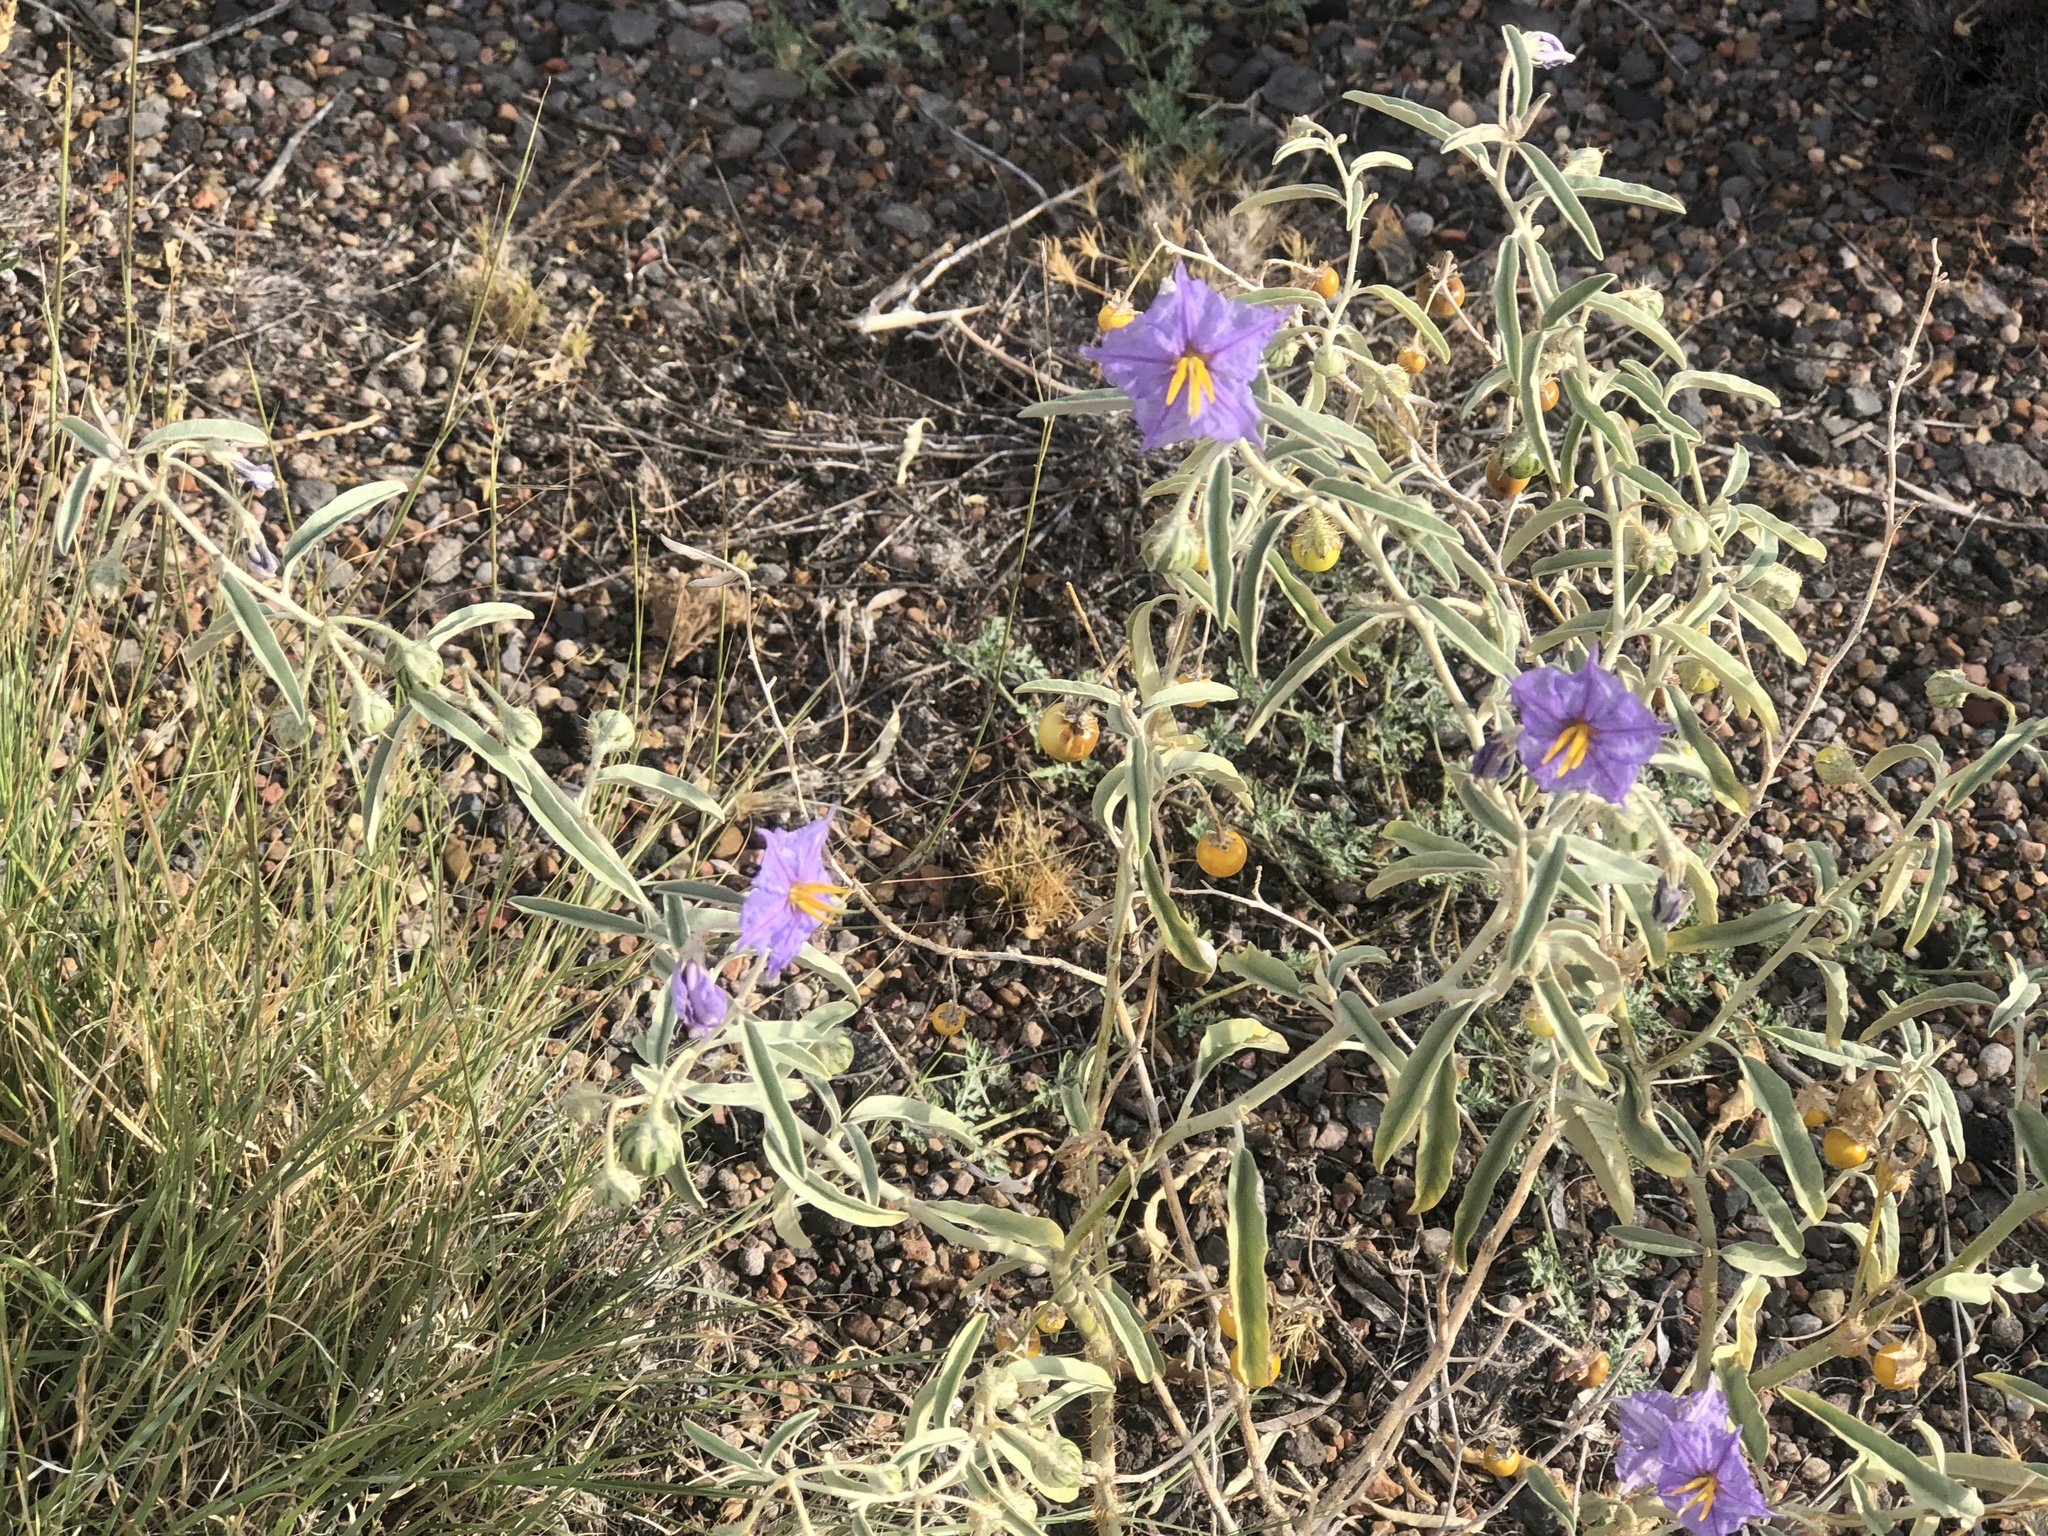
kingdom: Plantae
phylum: Tracheophyta
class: Magnoliopsida
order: Solanales
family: Solanaceae
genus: Solanum
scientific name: Solanum elaeagnifolium
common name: Silverleaf nightshade
